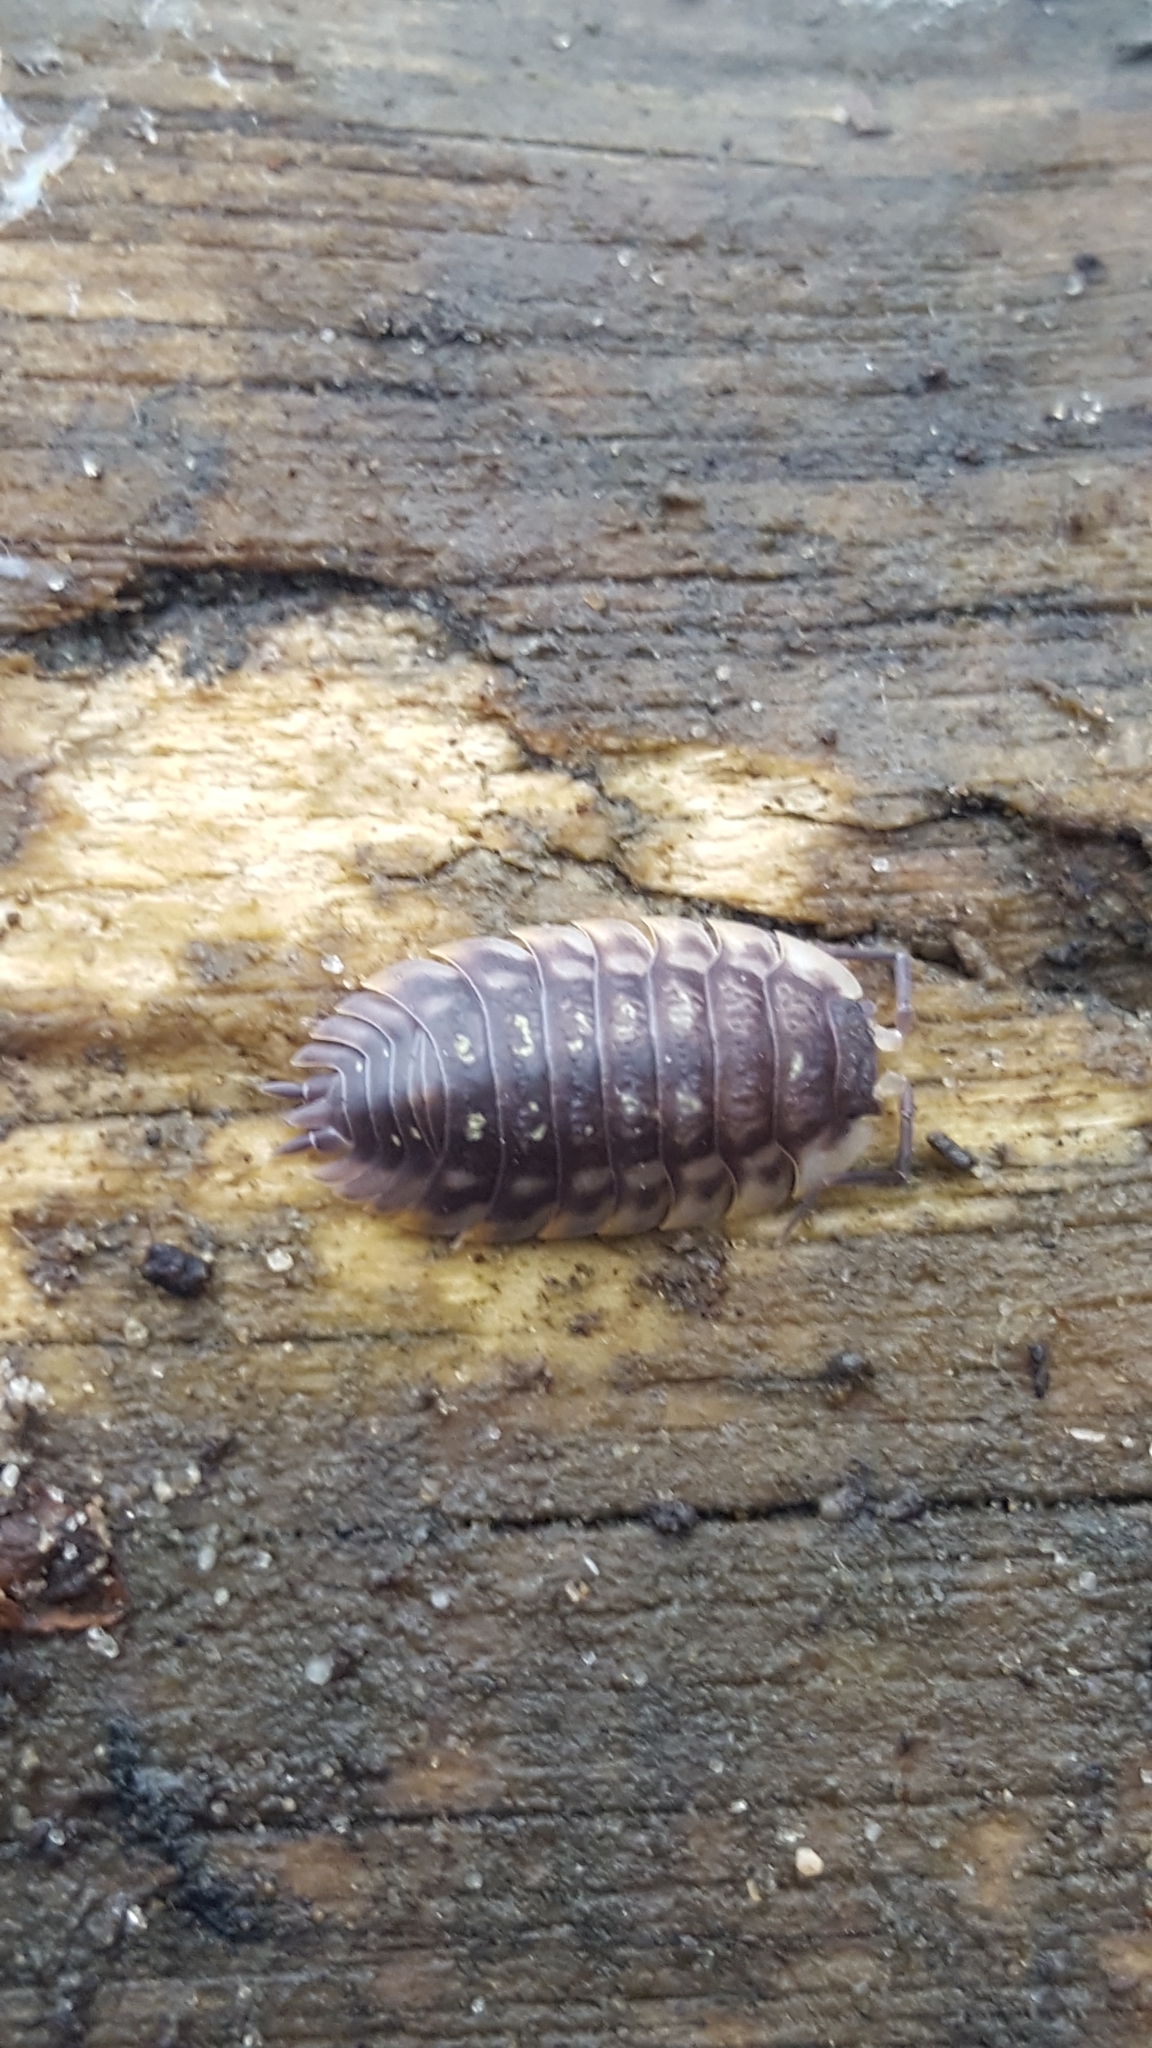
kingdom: Animalia
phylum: Arthropoda
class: Malacostraca
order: Isopoda
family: Oniscidae
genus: Oniscus
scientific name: Oniscus asellus
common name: Common shiny woodlouse
